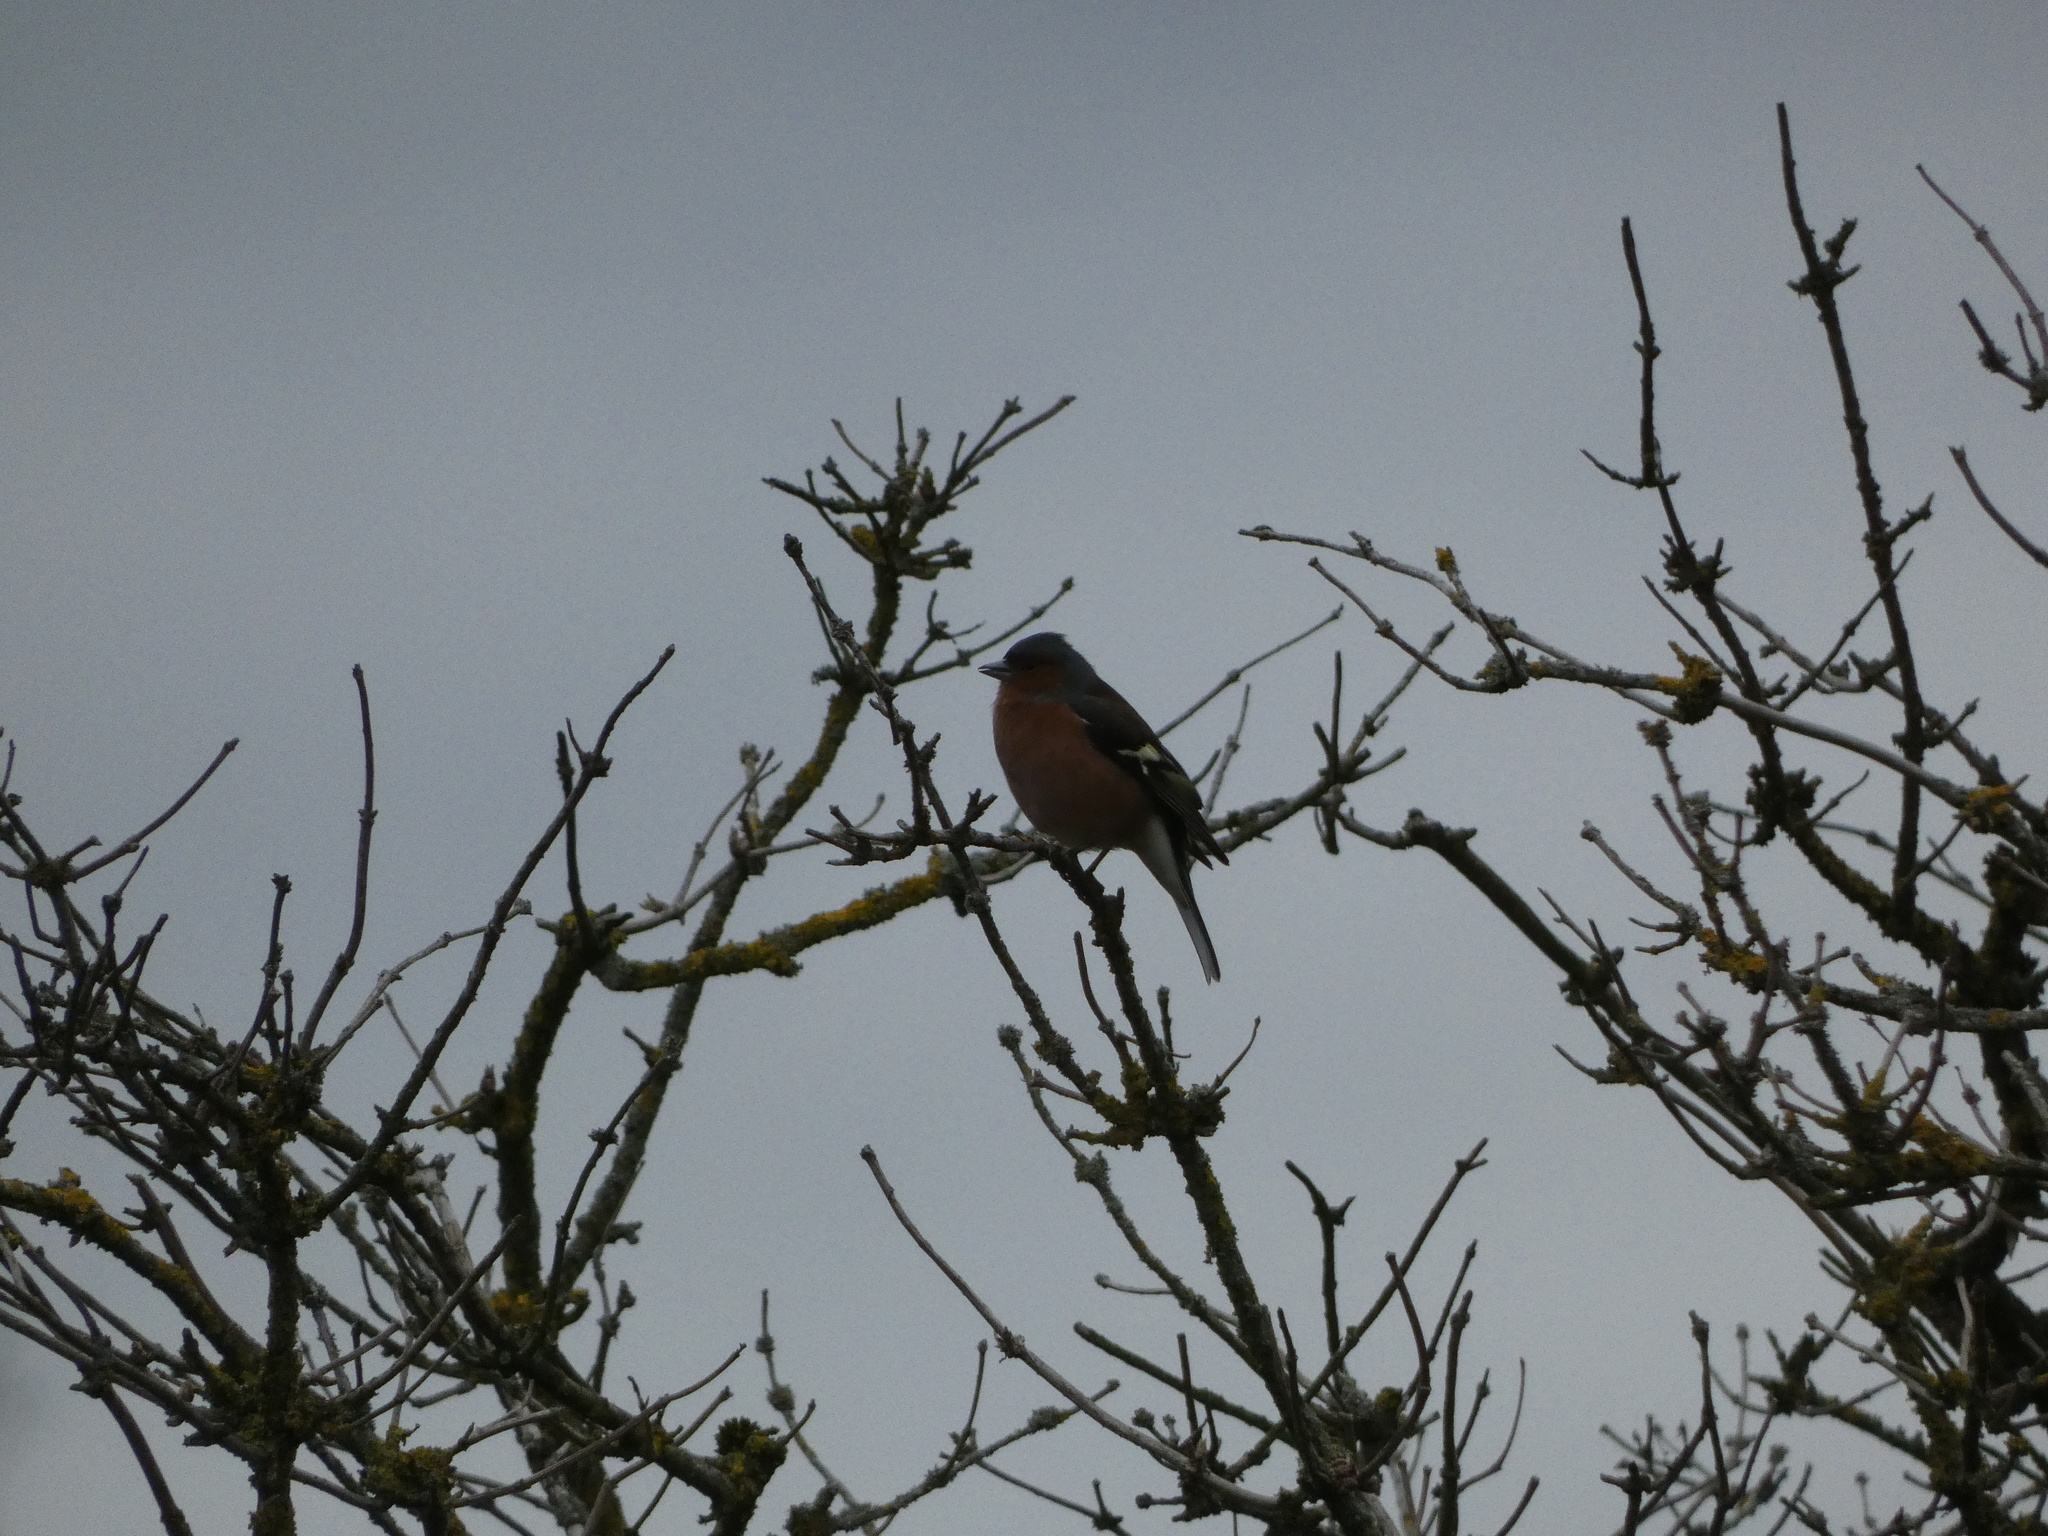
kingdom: Animalia
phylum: Chordata
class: Aves
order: Passeriformes
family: Fringillidae
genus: Fringilla
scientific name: Fringilla coelebs
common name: Common chaffinch
